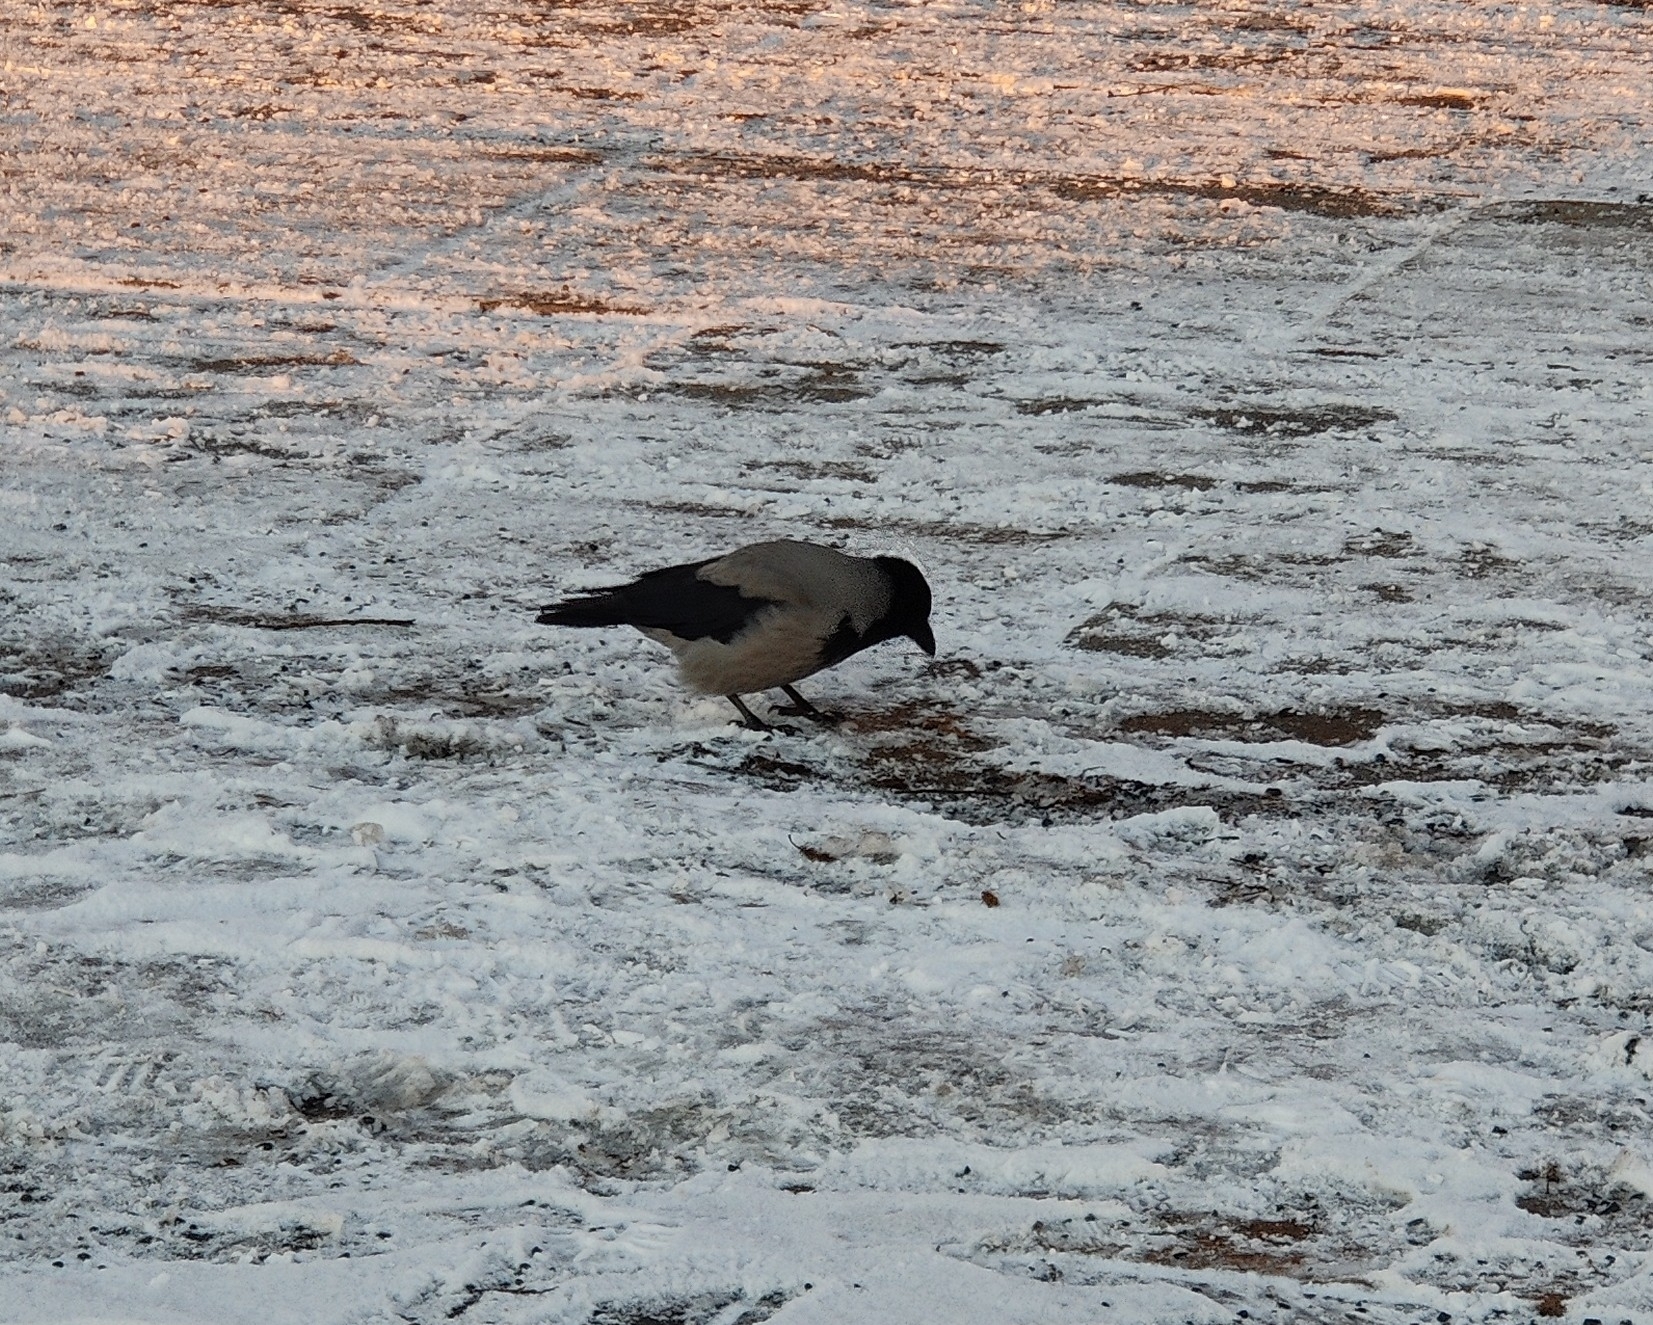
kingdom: Animalia
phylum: Chordata
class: Aves
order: Passeriformes
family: Corvidae
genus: Corvus
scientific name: Corvus cornix
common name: Hooded crow
